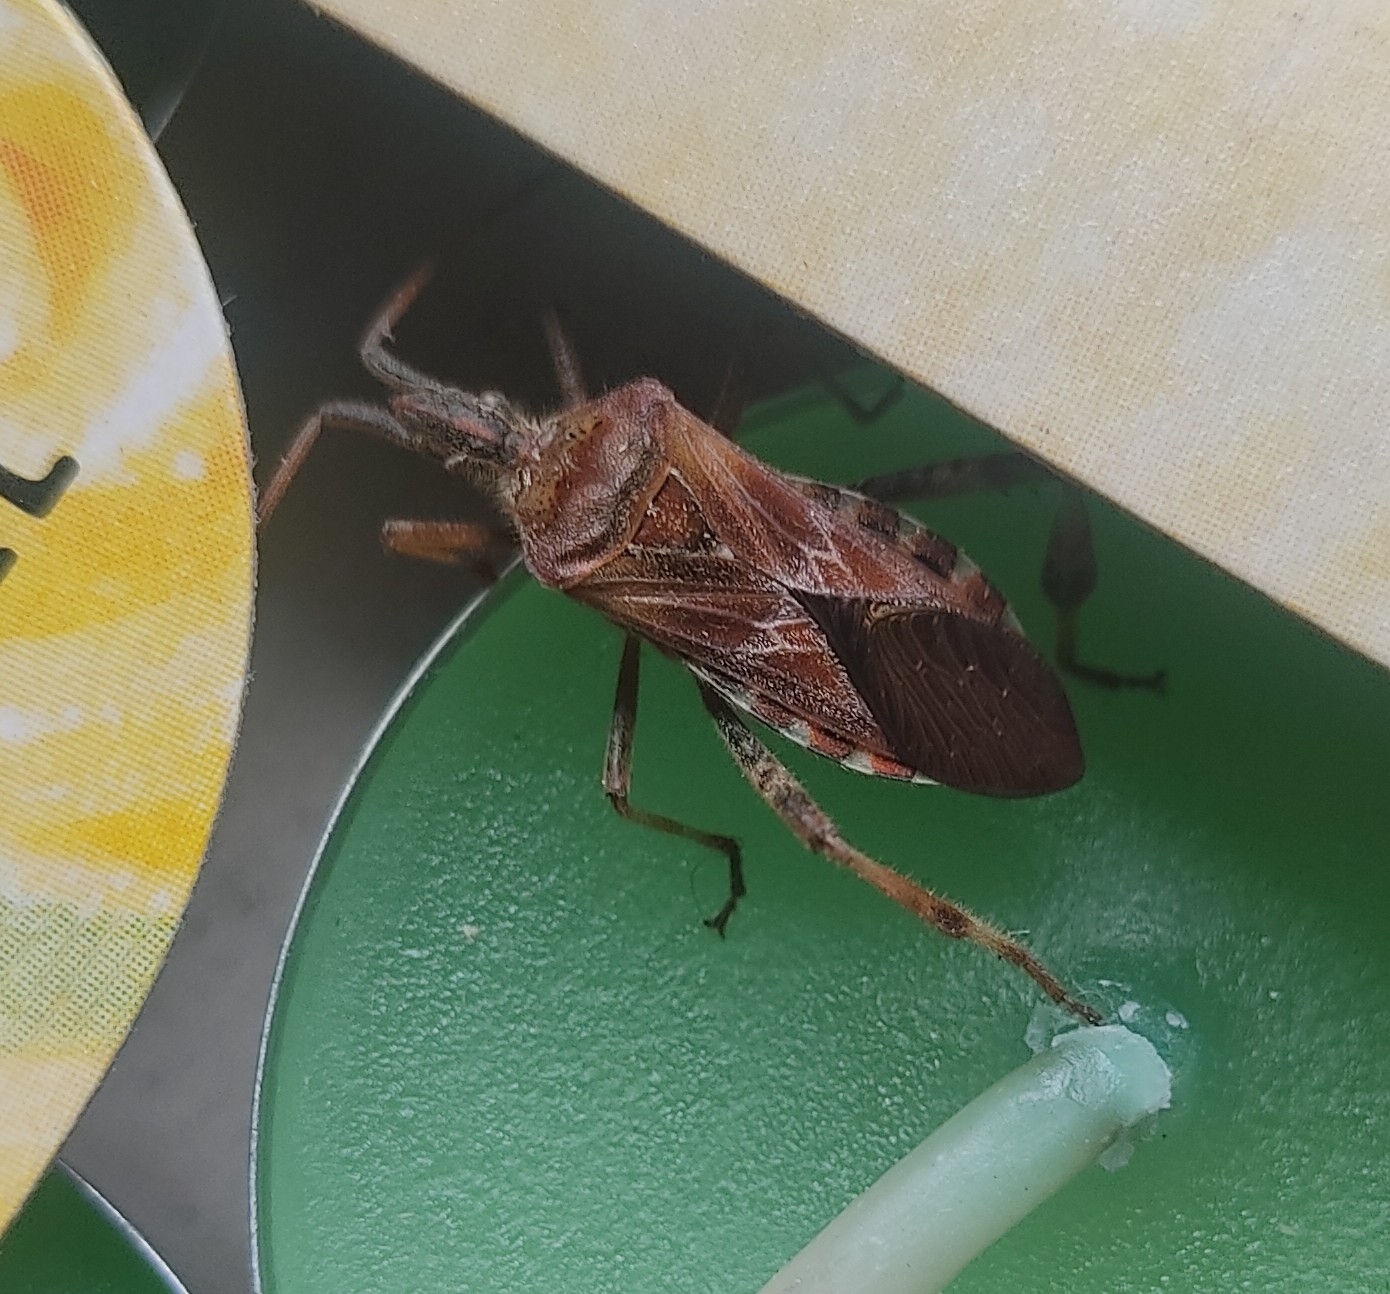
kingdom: Animalia
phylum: Arthropoda
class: Insecta
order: Hemiptera
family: Coreidae
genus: Leptoglossus
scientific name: Leptoglossus occidentalis
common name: Western conifer-seed bug
